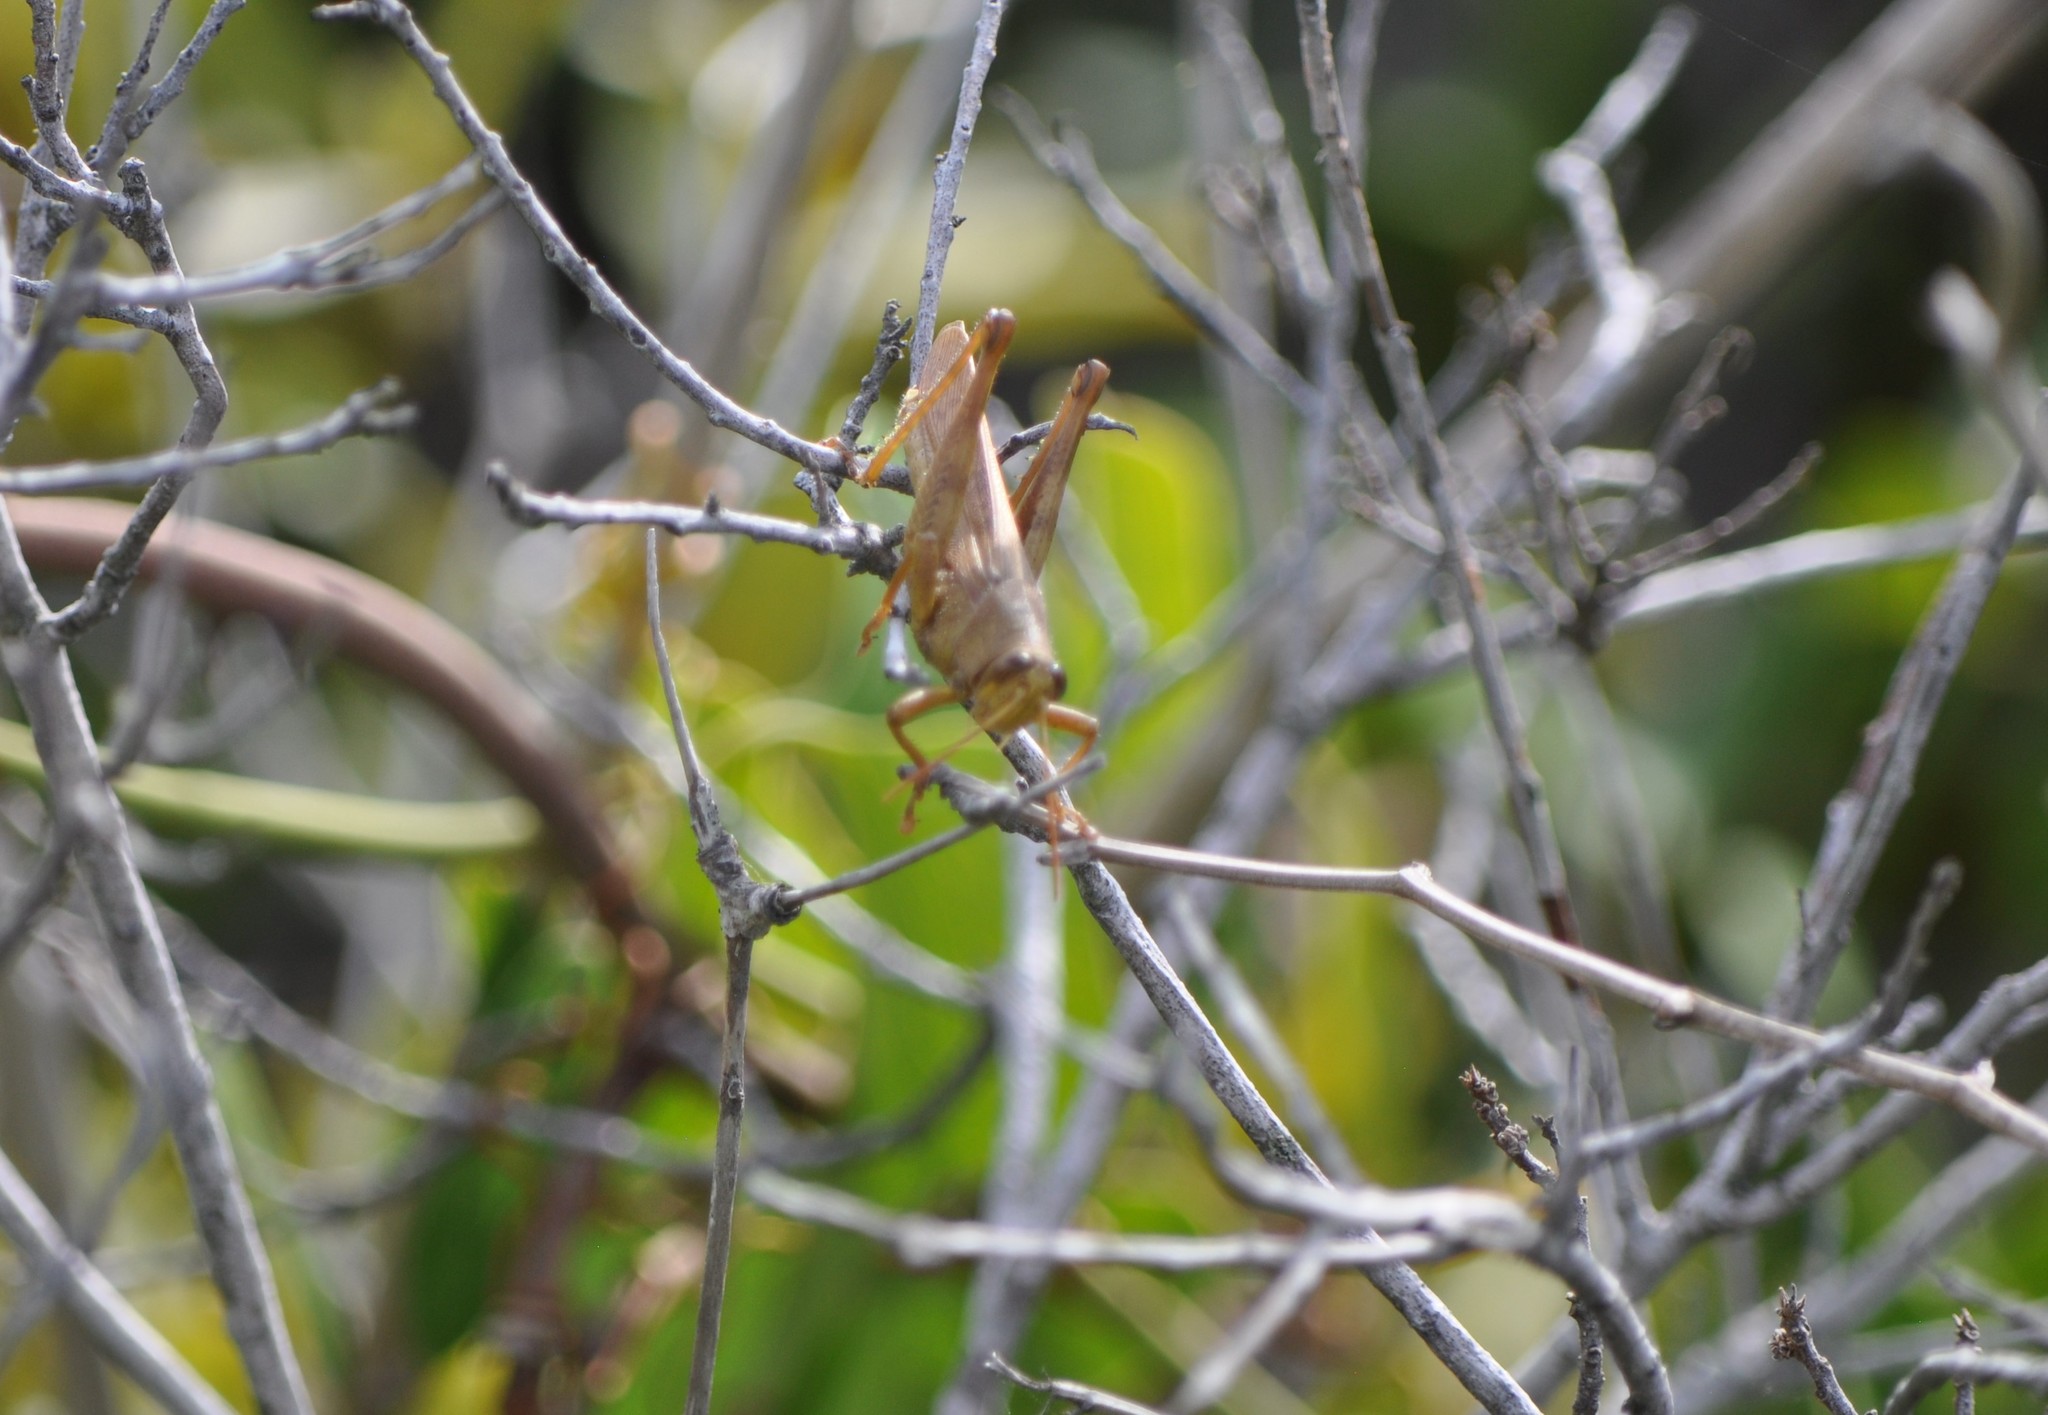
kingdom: Animalia
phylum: Arthropoda
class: Insecta
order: Orthoptera
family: Acrididae
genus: Schistocerca
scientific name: Schistocerca rubiginosa
